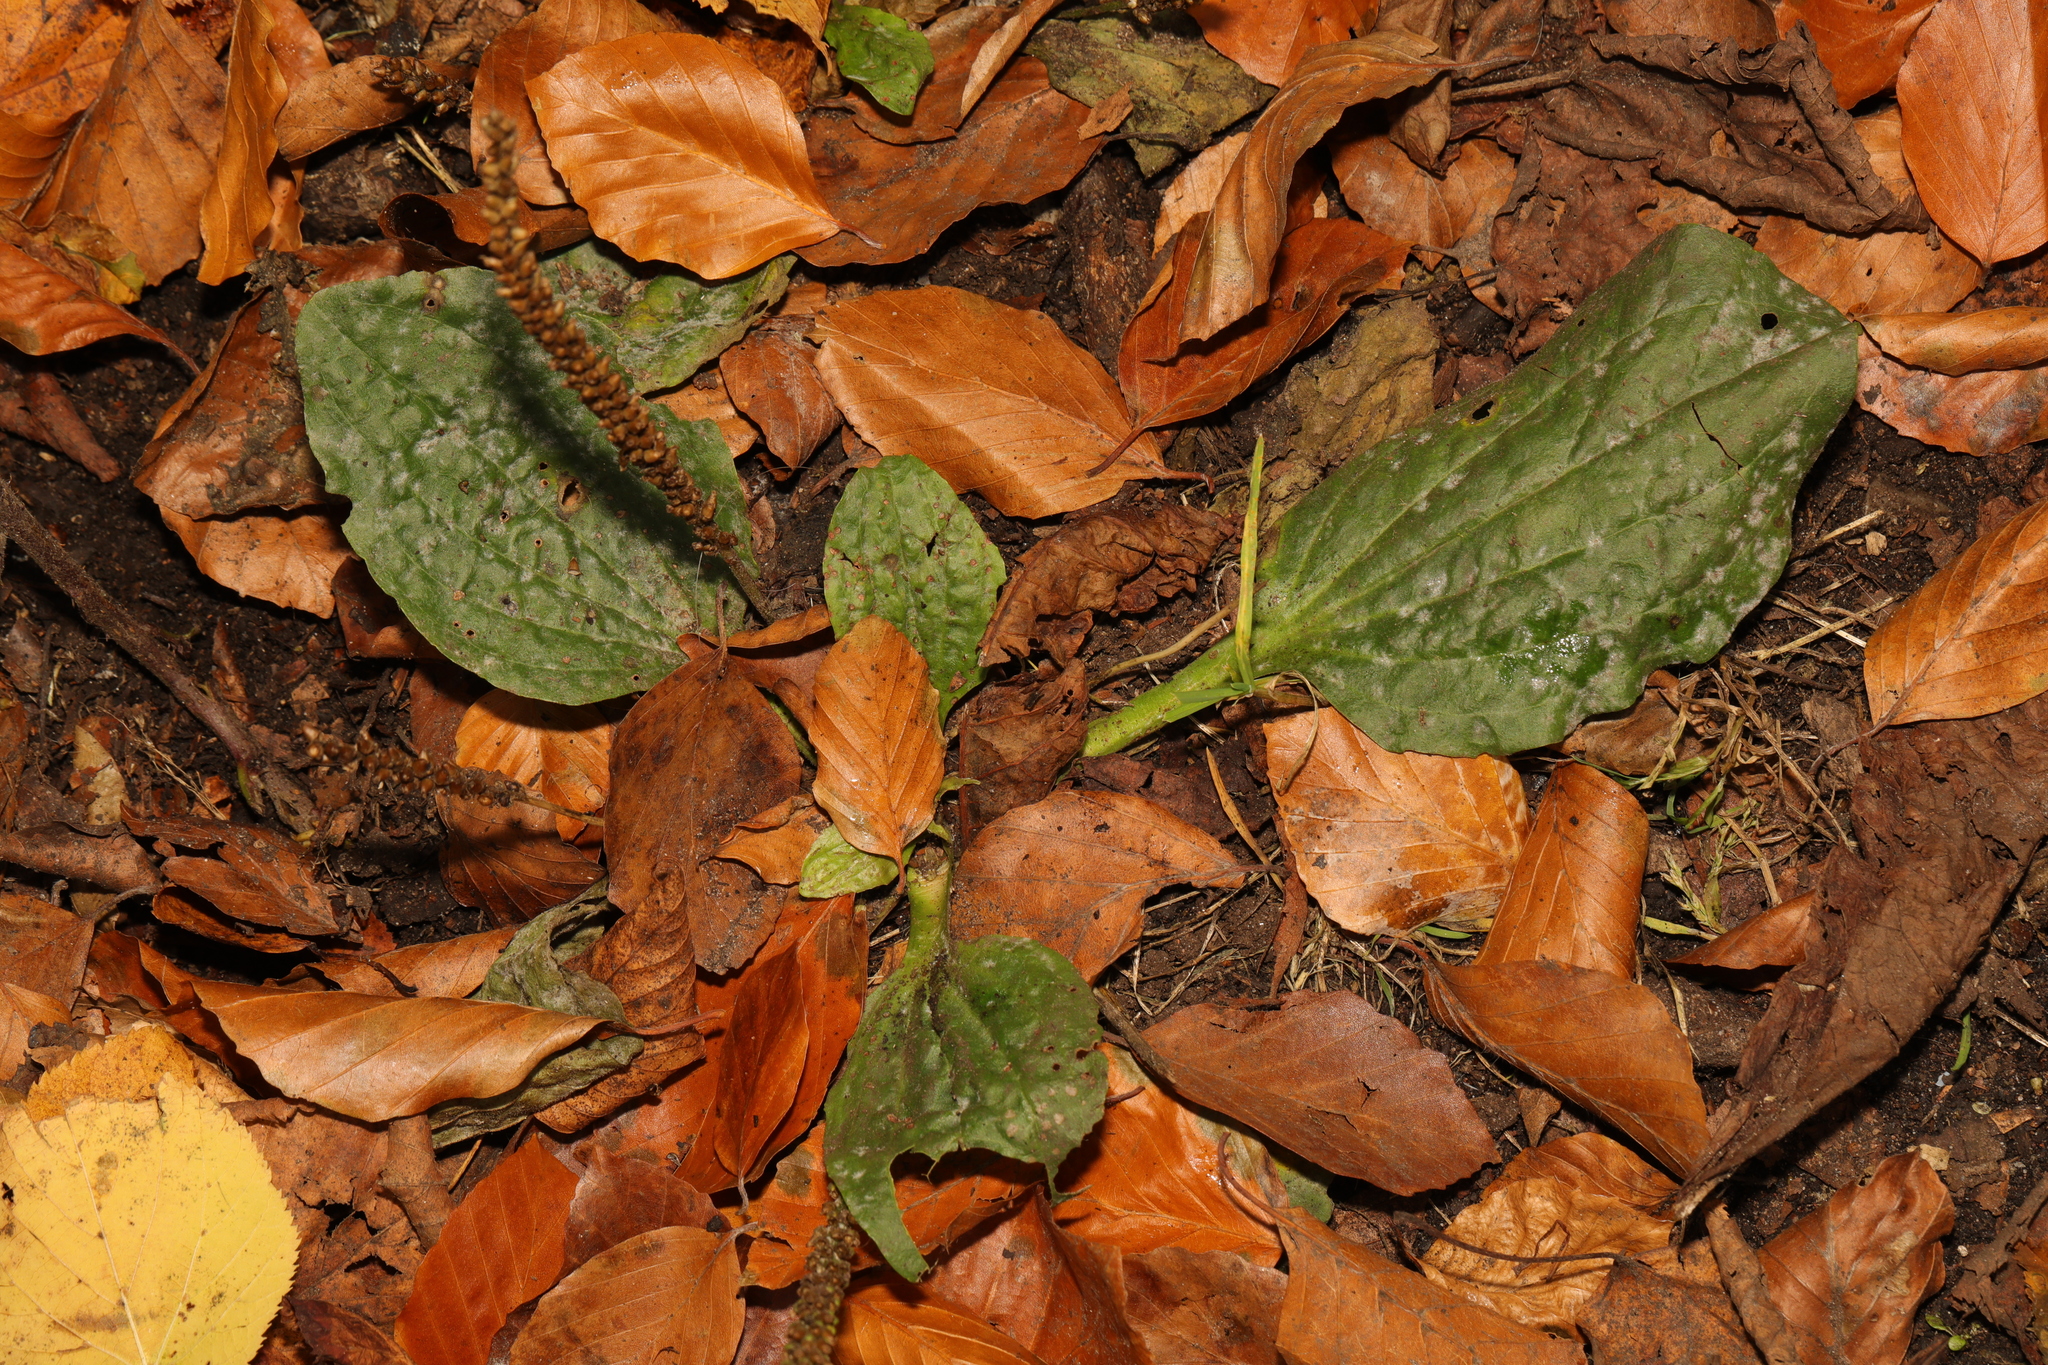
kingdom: Plantae
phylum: Tracheophyta
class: Magnoliopsida
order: Lamiales
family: Plantaginaceae
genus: Plantago
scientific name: Plantago major
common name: Common plantain
